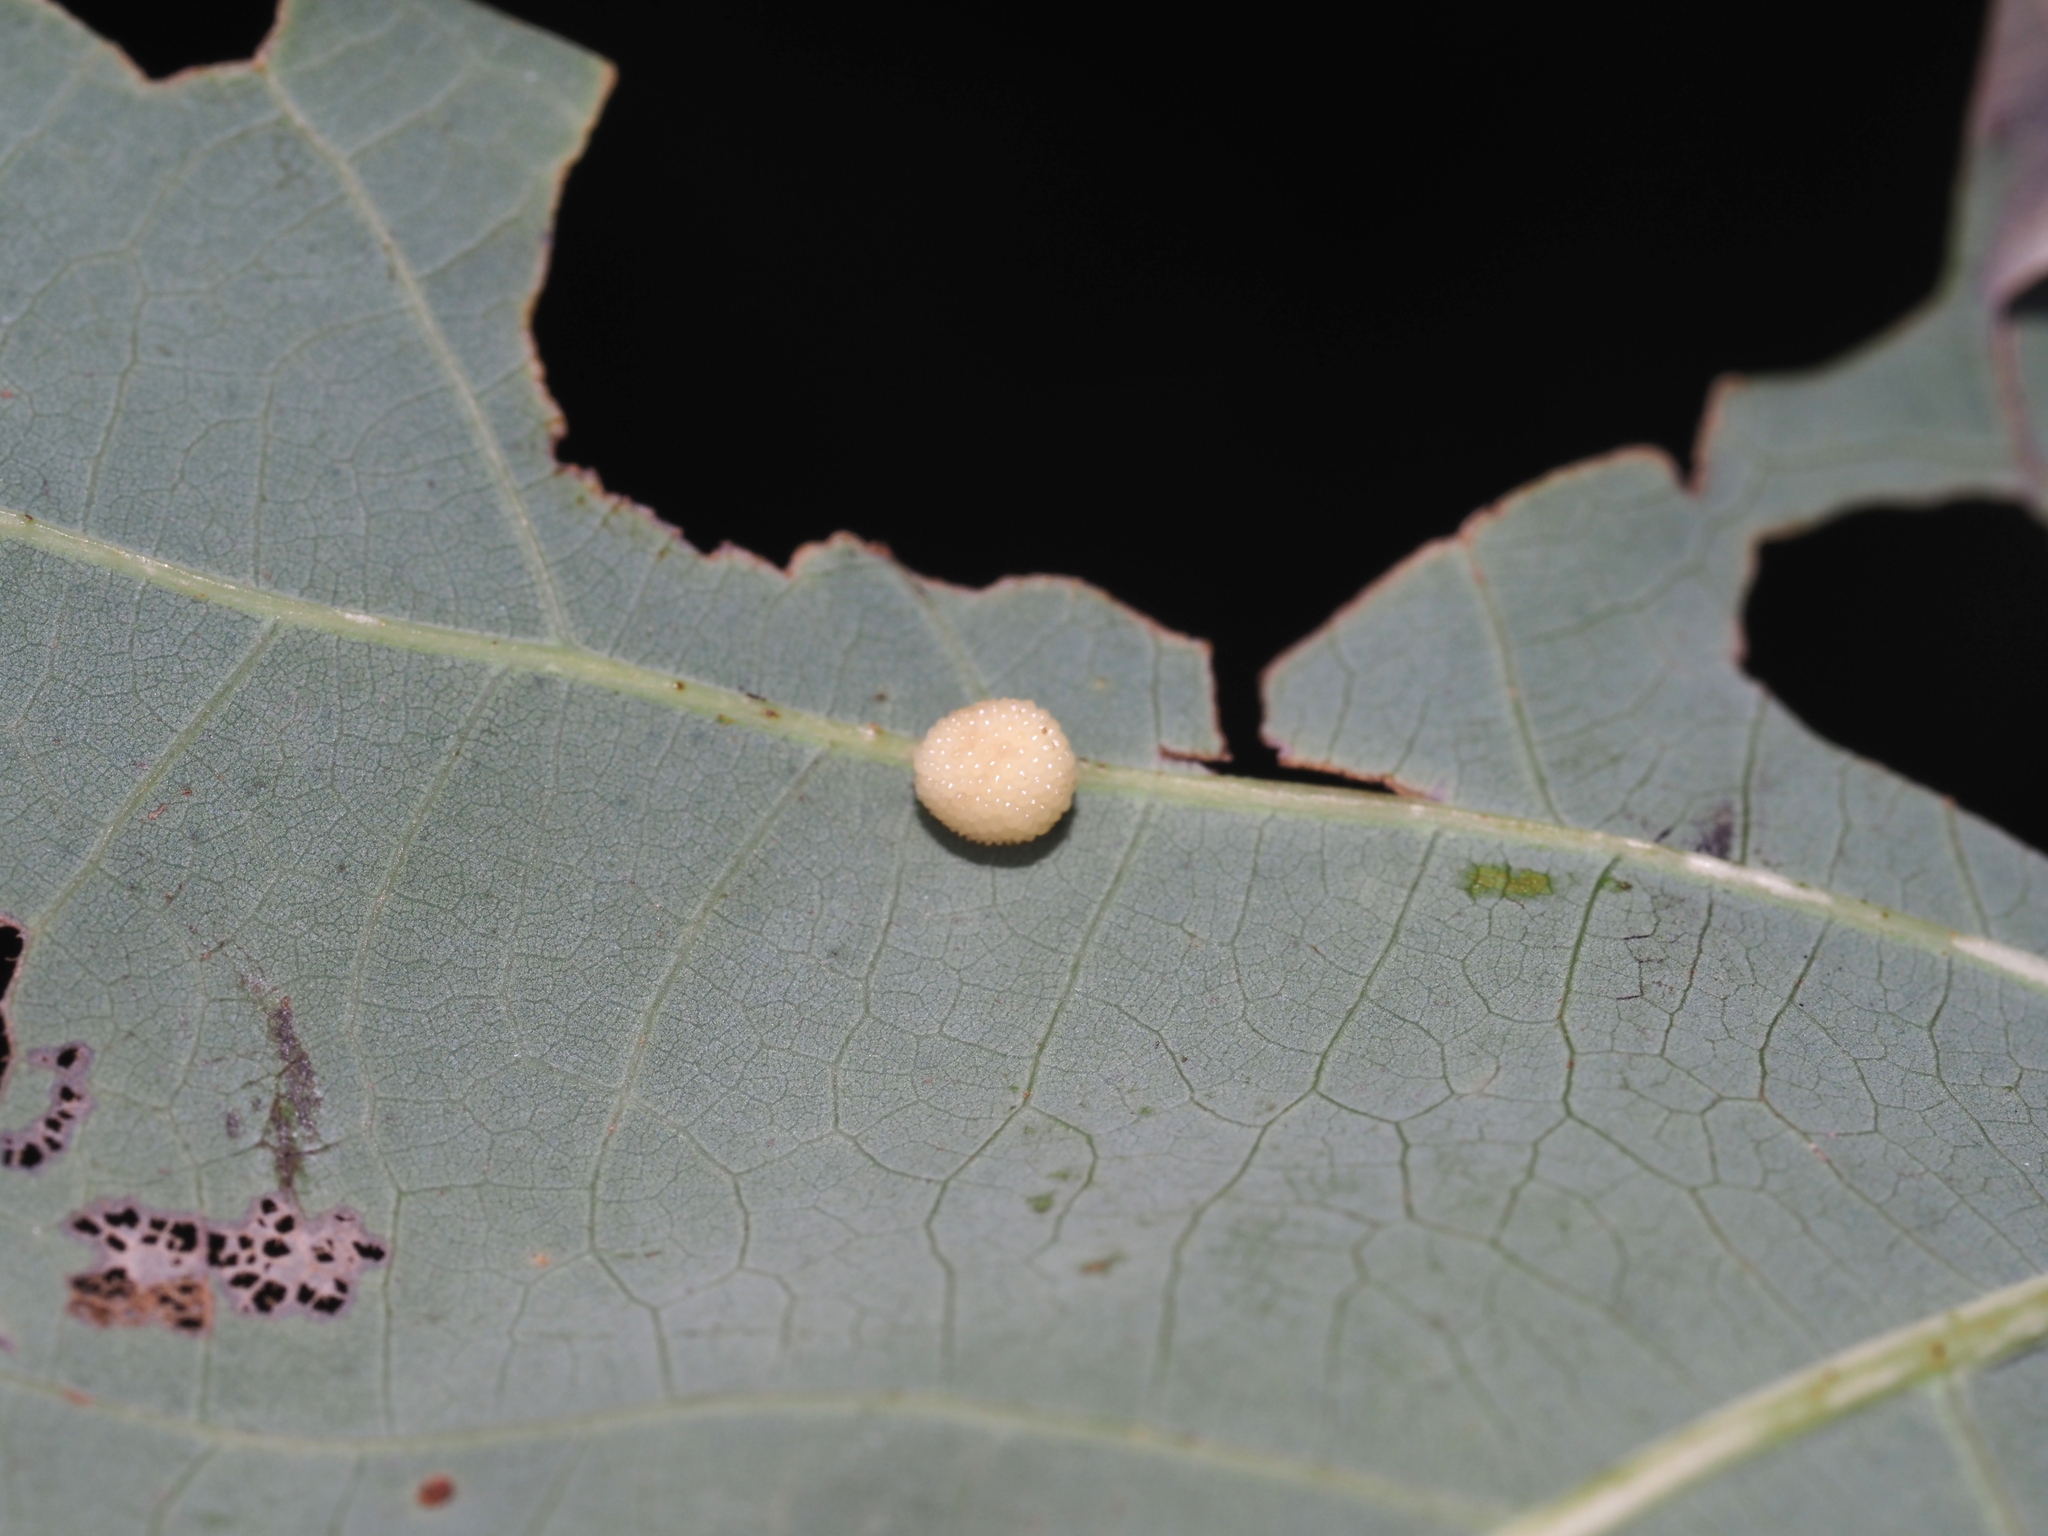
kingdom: Animalia
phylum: Arthropoda
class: Insecta
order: Hymenoptera
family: Cynipidae
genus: Acraspis
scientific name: Acraspis
